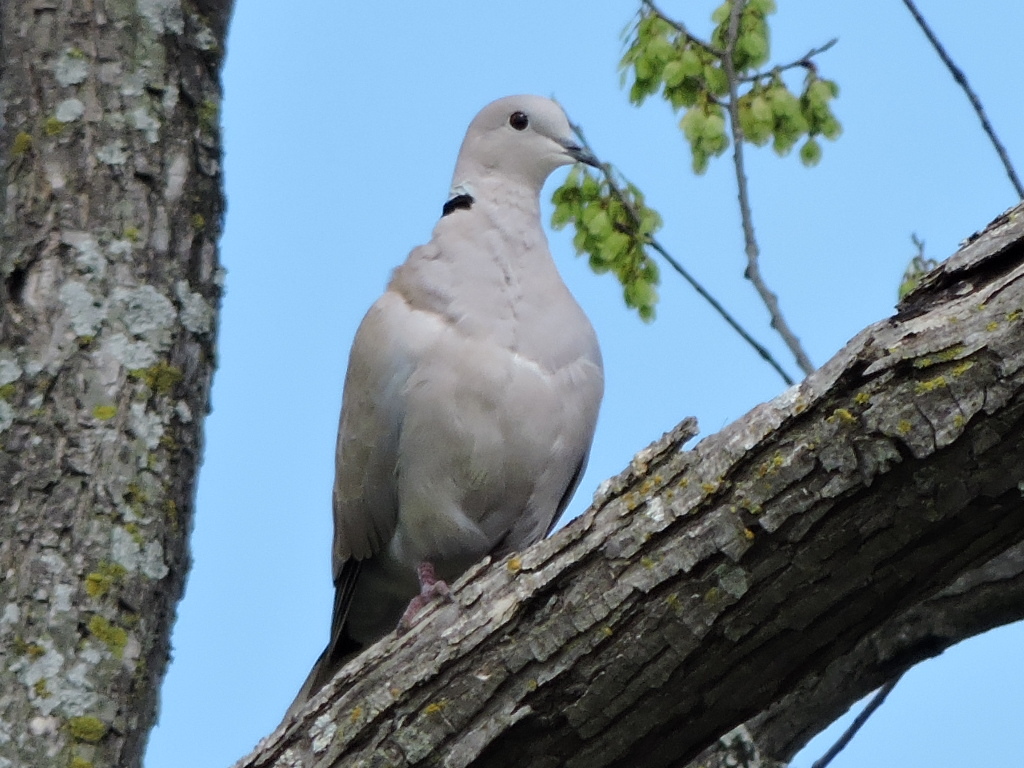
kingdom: Animalia
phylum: Chordata
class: Aves
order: Columbiformes
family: Columbidae
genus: Streptopelia
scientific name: Streptopelia decaocto
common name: Eurasian collared dove
